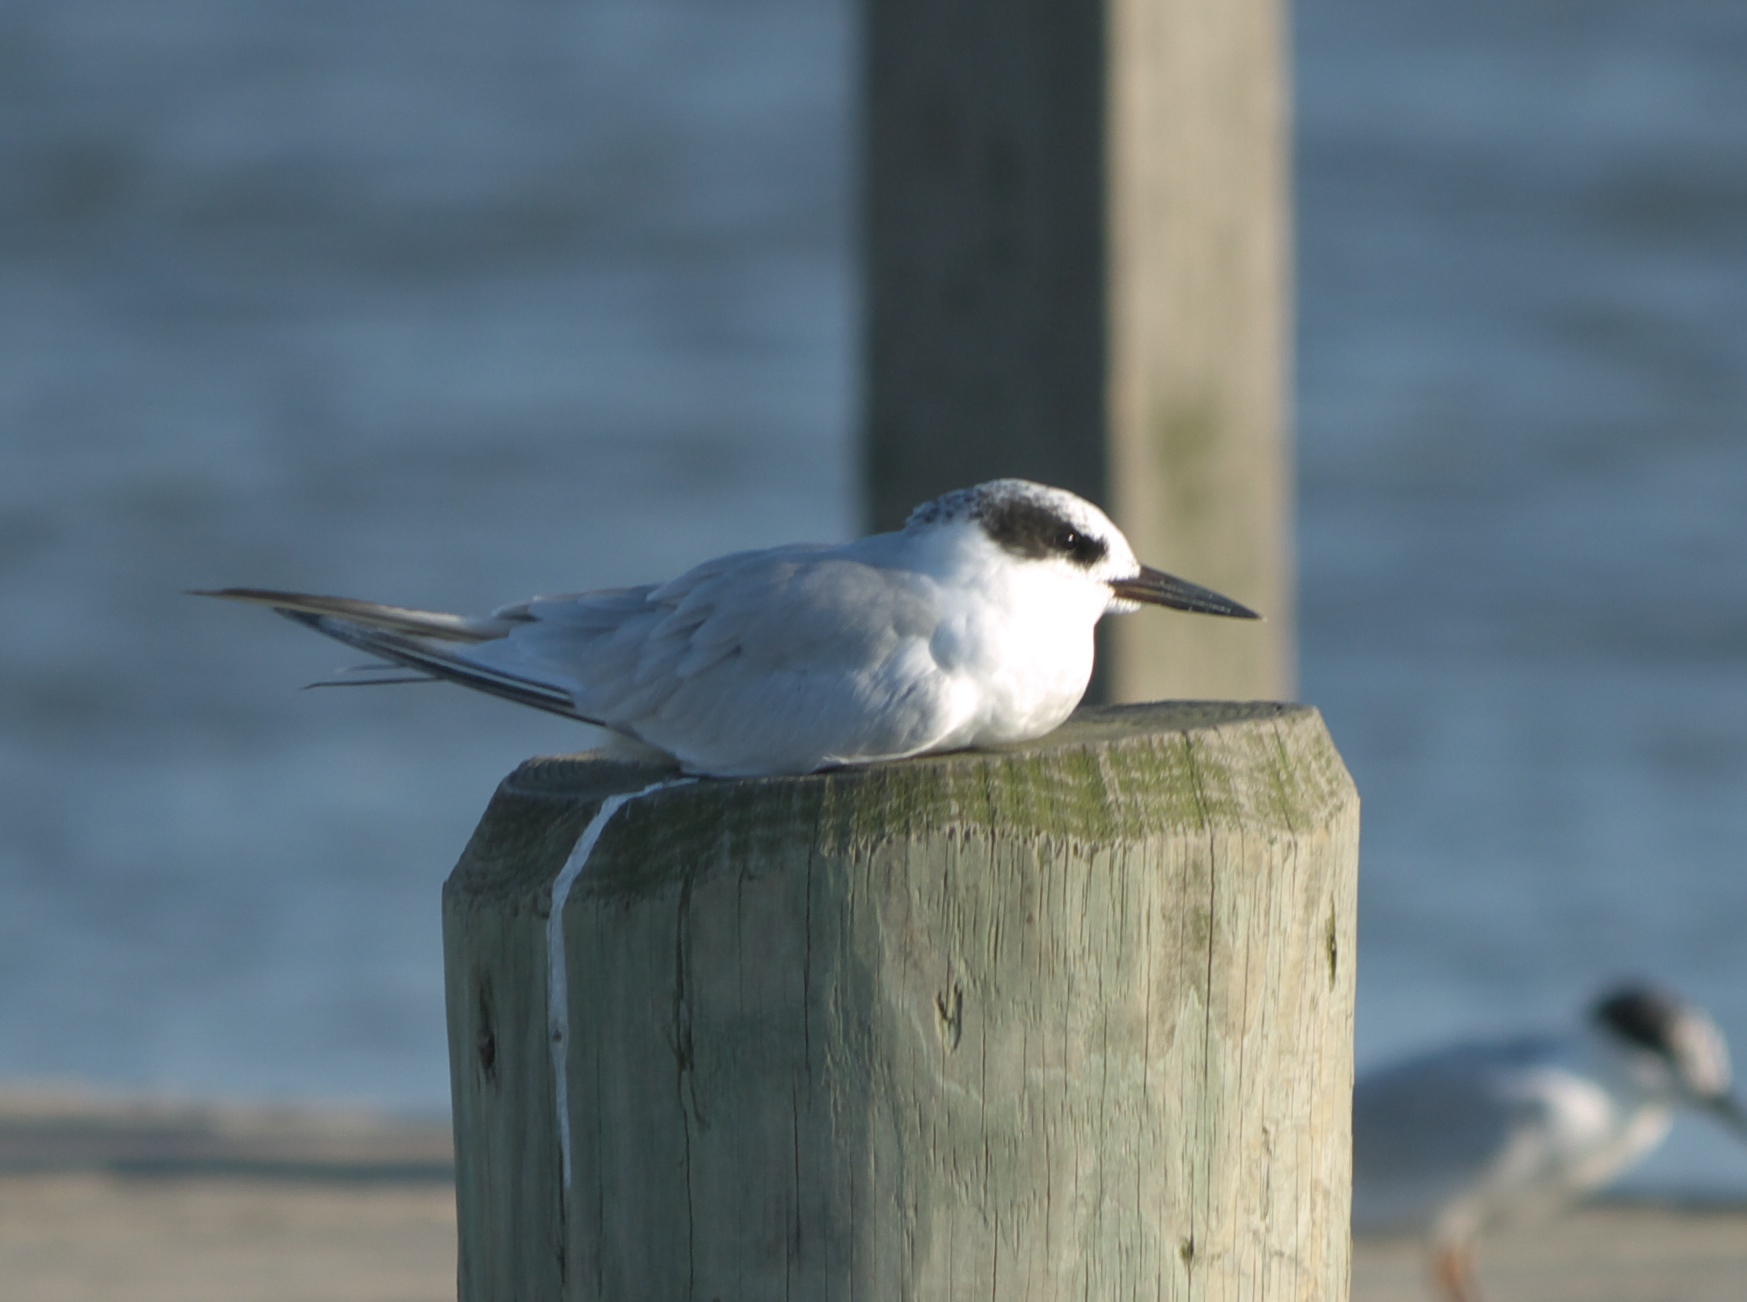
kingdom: Animalia
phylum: Chordata
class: Aves
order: Charadriiformes
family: Laridae
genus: Sterna
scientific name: Sterna forsteri
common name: Forster's tern
